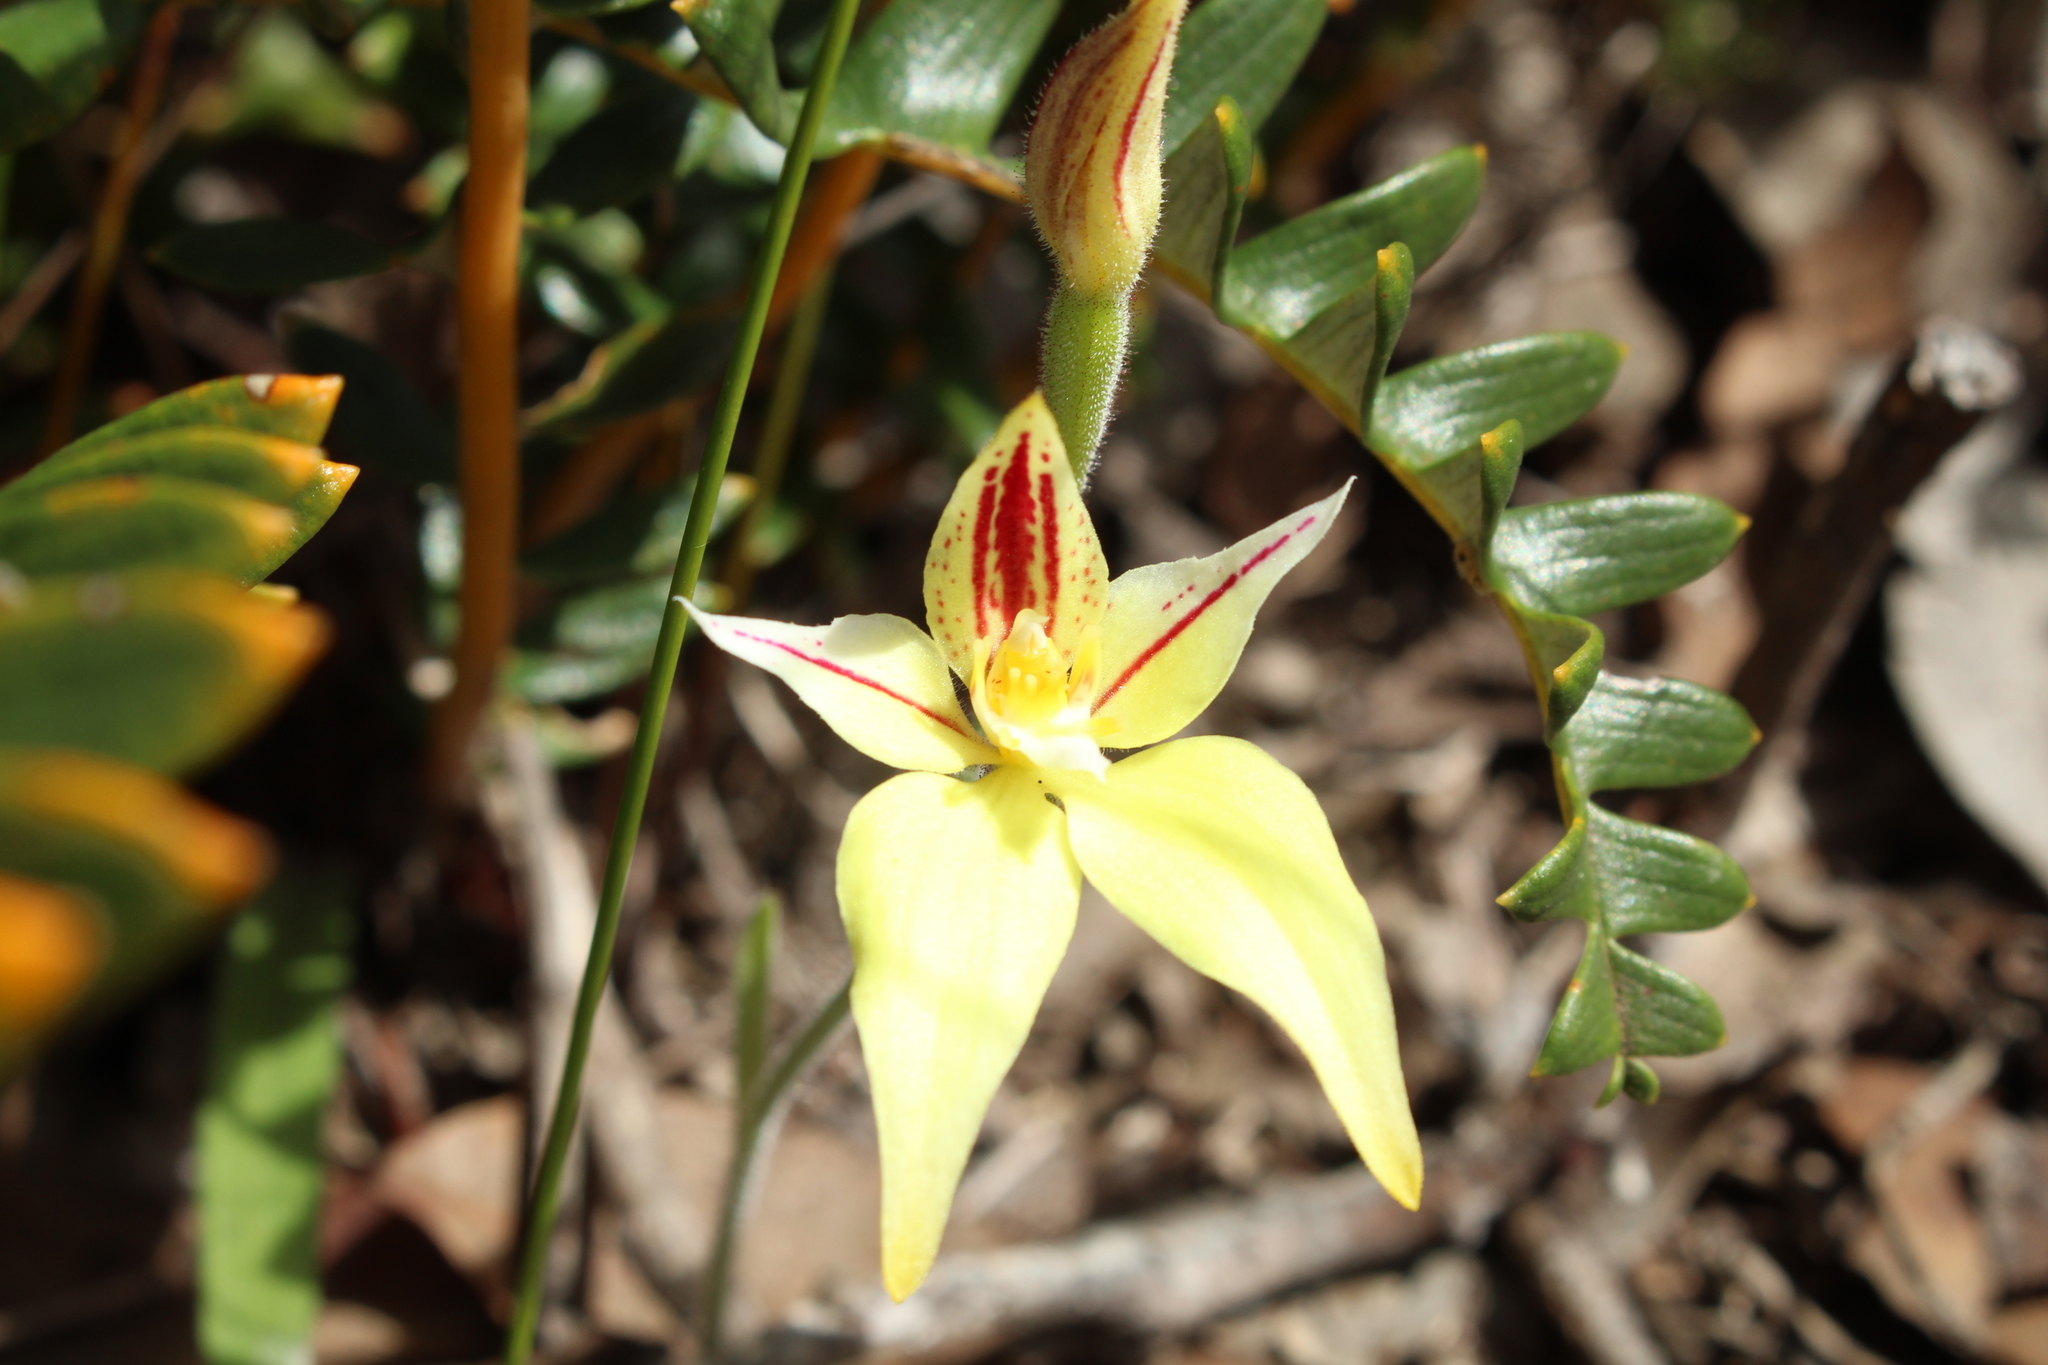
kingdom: Plantae
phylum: Tracheophyta
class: Liliopsida
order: Asparagales
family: Orchidaceae
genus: Caladenia
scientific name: Caladenia flava
